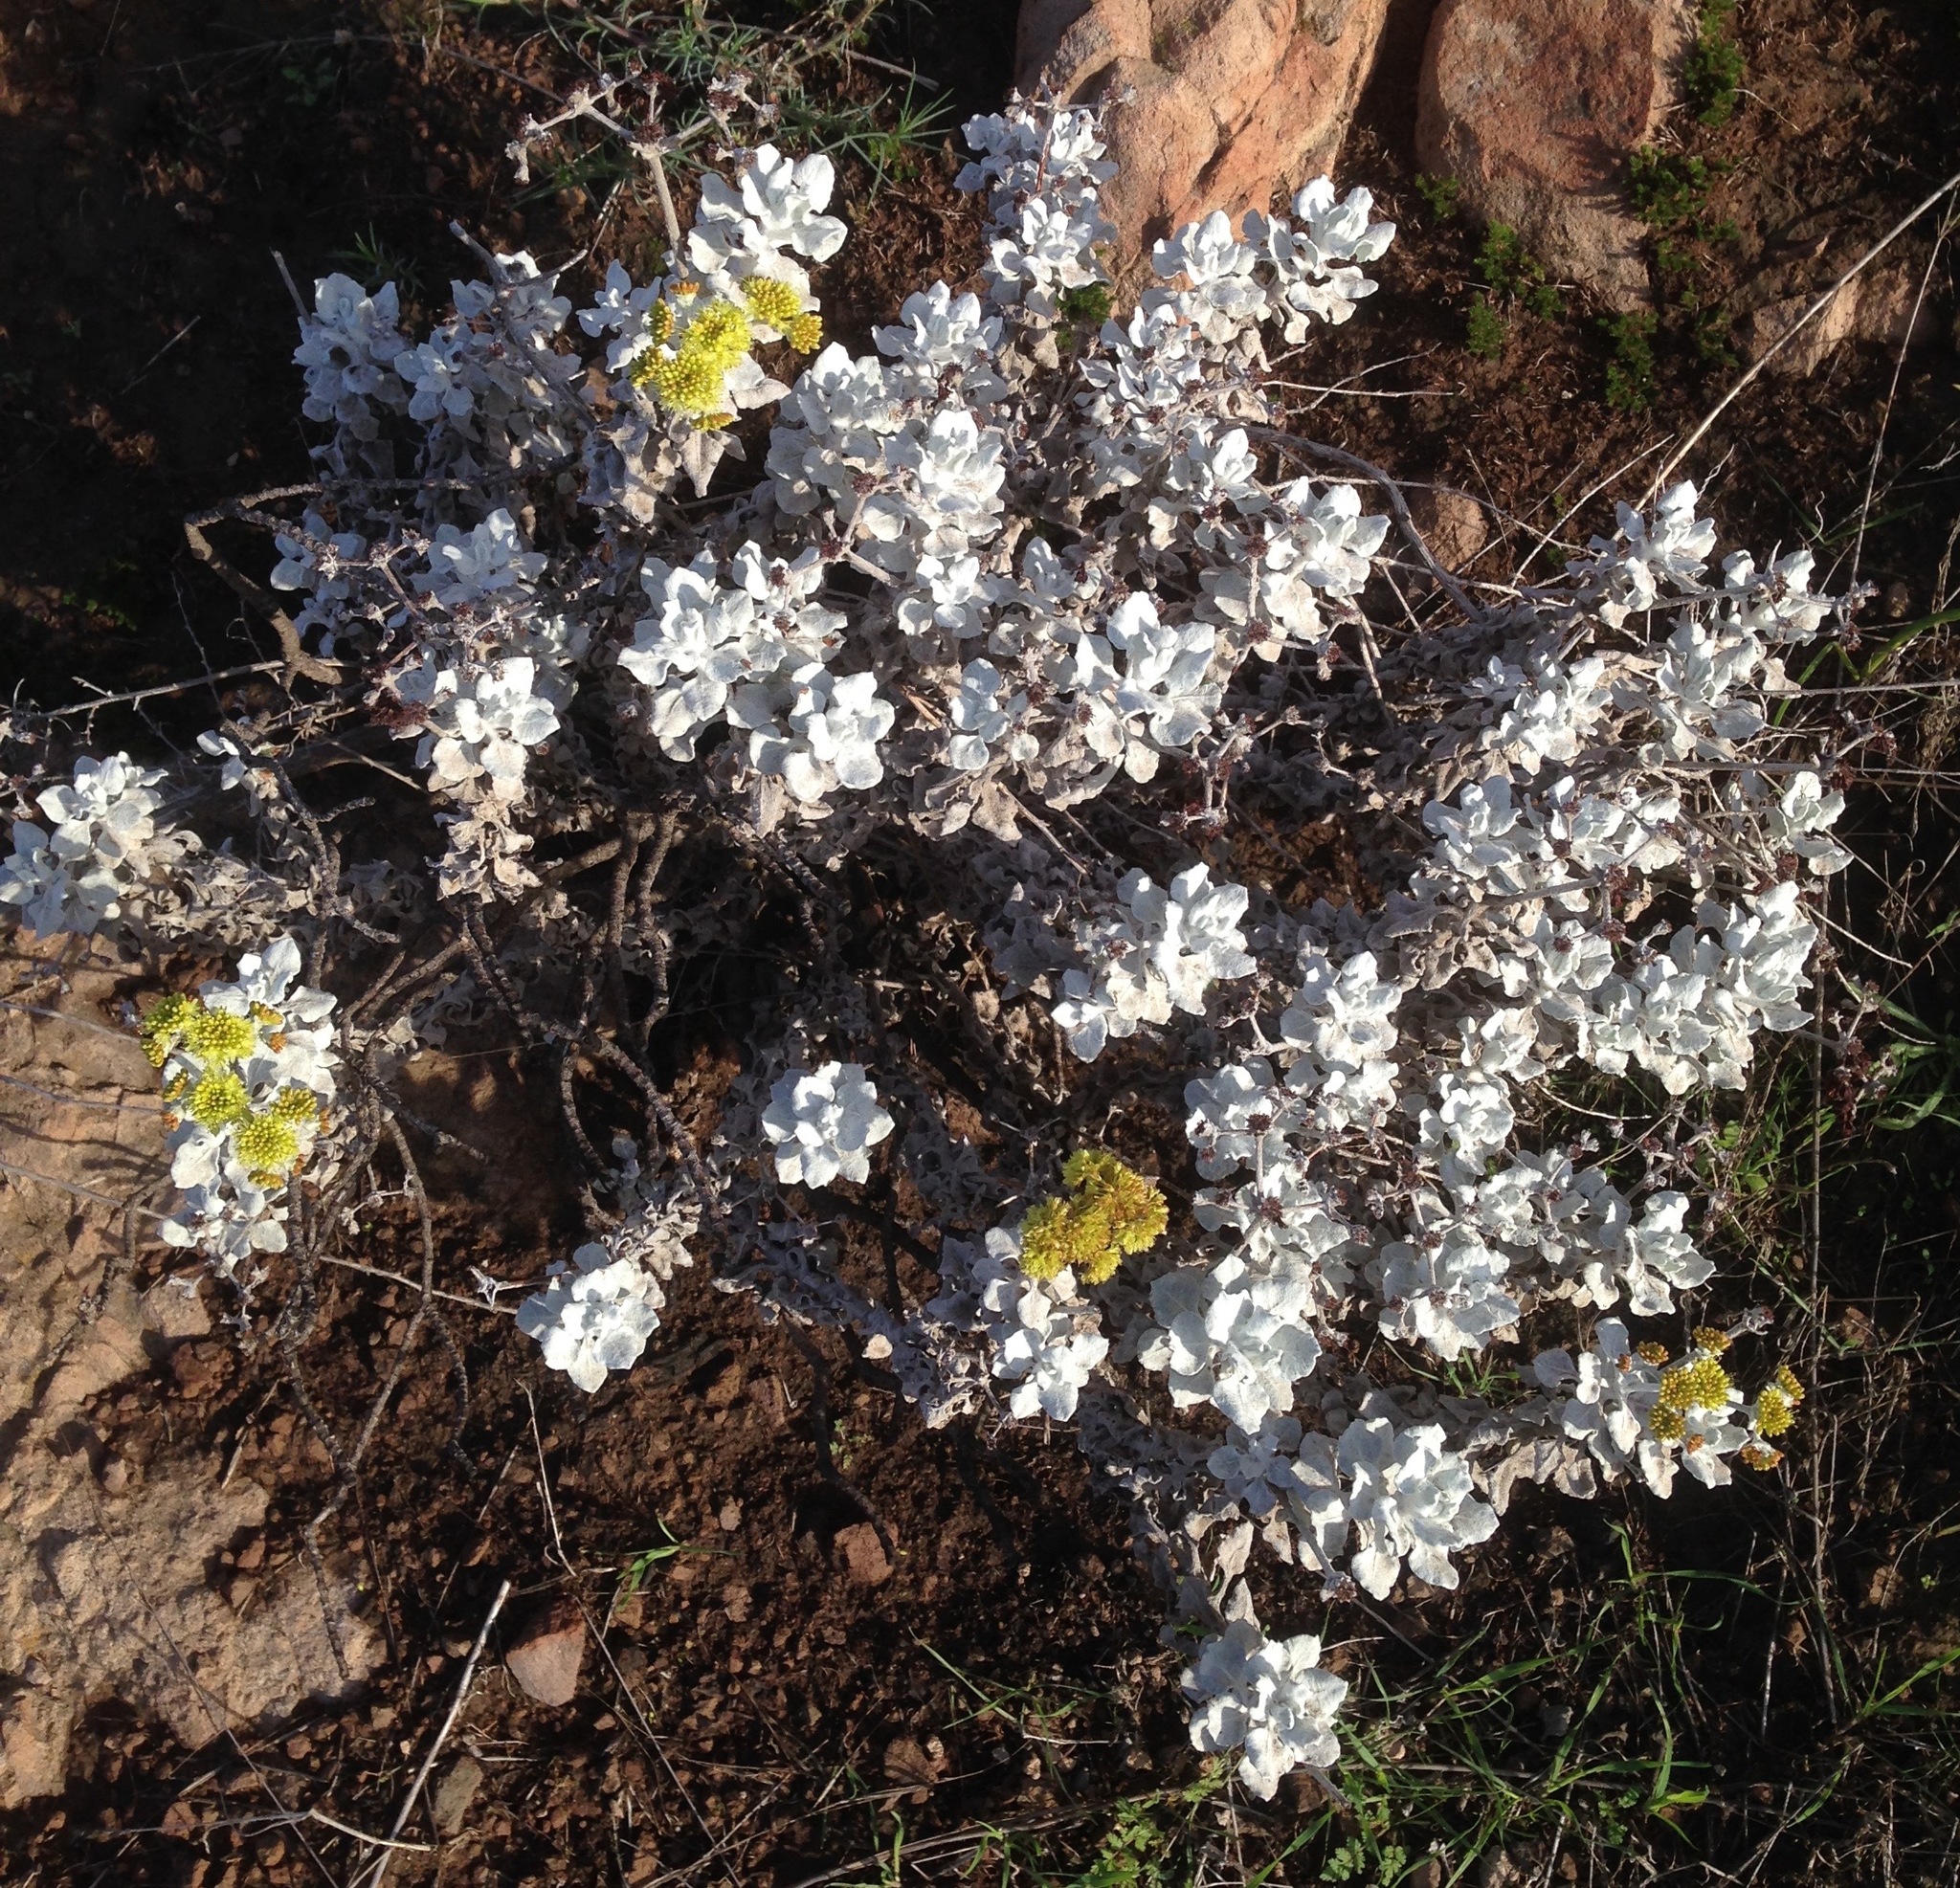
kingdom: Plantae
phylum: Tracheophyta
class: Magnoliopsida
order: Caryophyllales
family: Polygonaceae
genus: Eriogonum
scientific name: Eriogonum crocatum
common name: Saffron wild buckwheat
